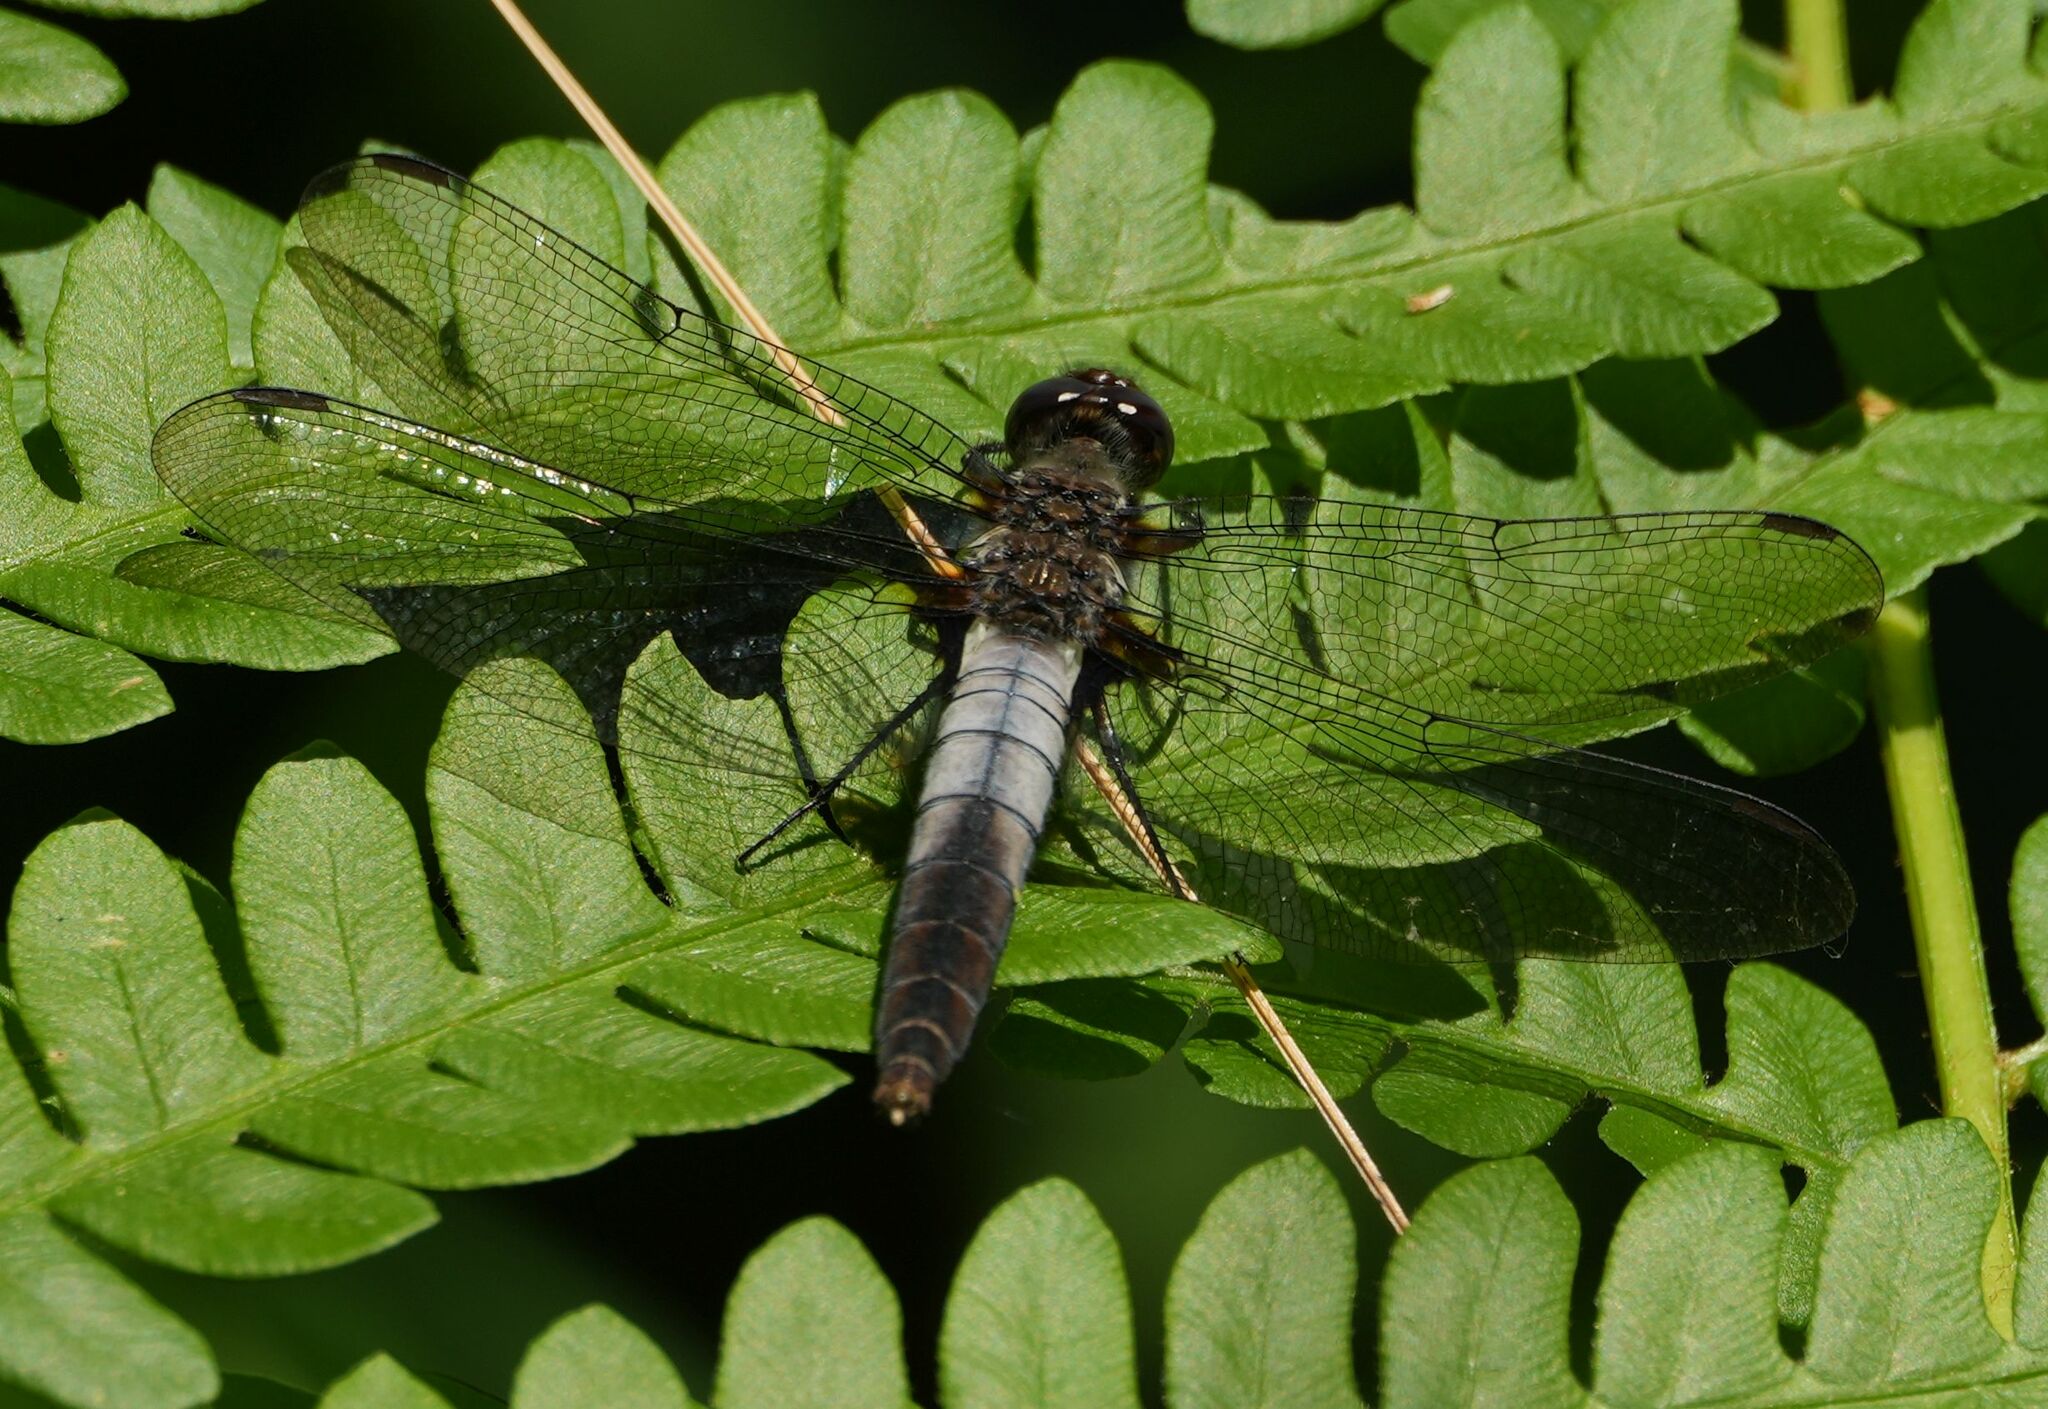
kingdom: Animalia
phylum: Arthropoda
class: Insecta
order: Odonata
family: Libellulidae
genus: Ladona
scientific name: Ladona julia
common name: Chalk-fronted corporal
